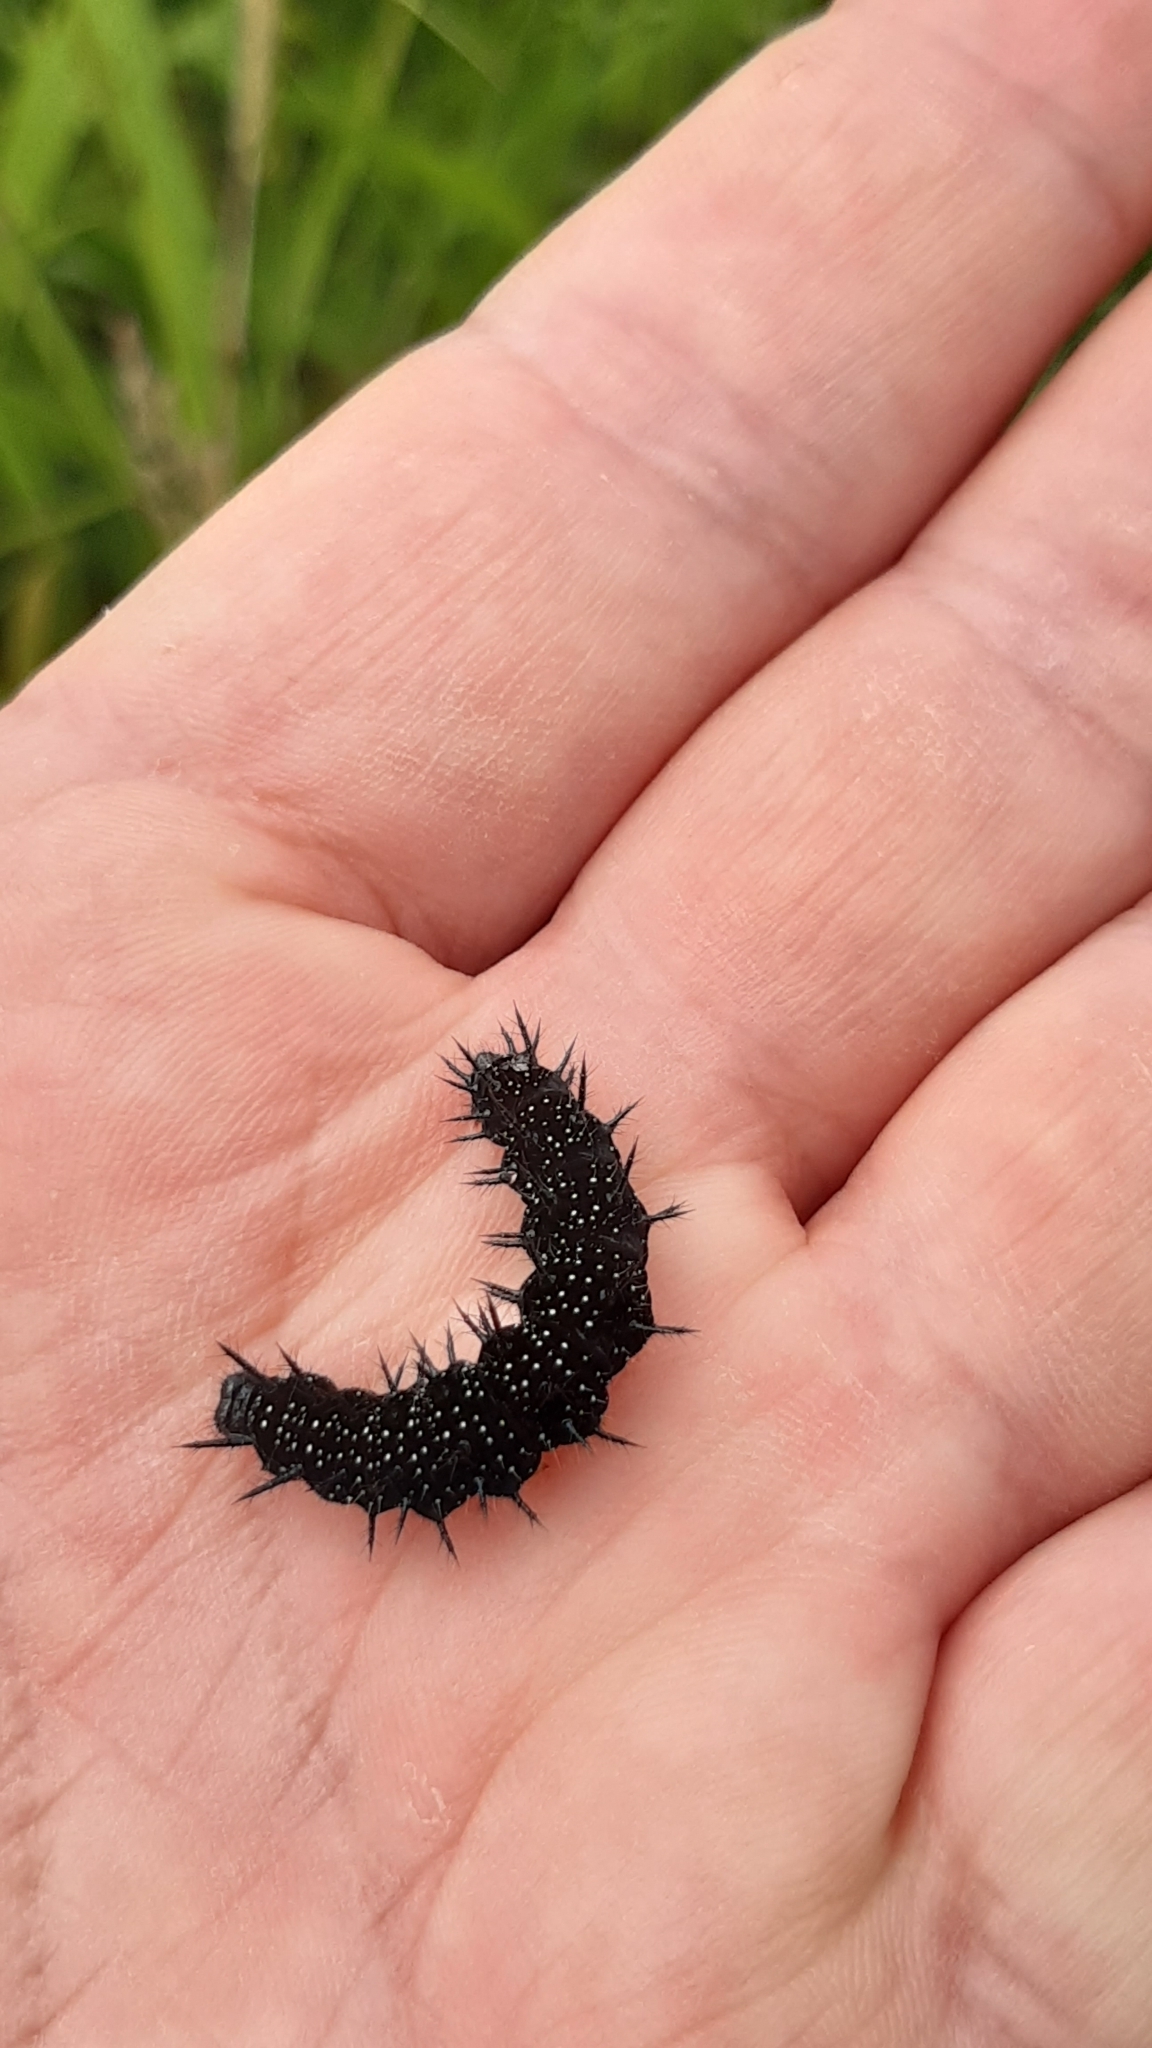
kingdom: Animalia
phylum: Arthropoda
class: Insecta
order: Lepidoptera
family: Nymphalidae
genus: Aglais
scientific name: Aglais io
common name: Peacock
